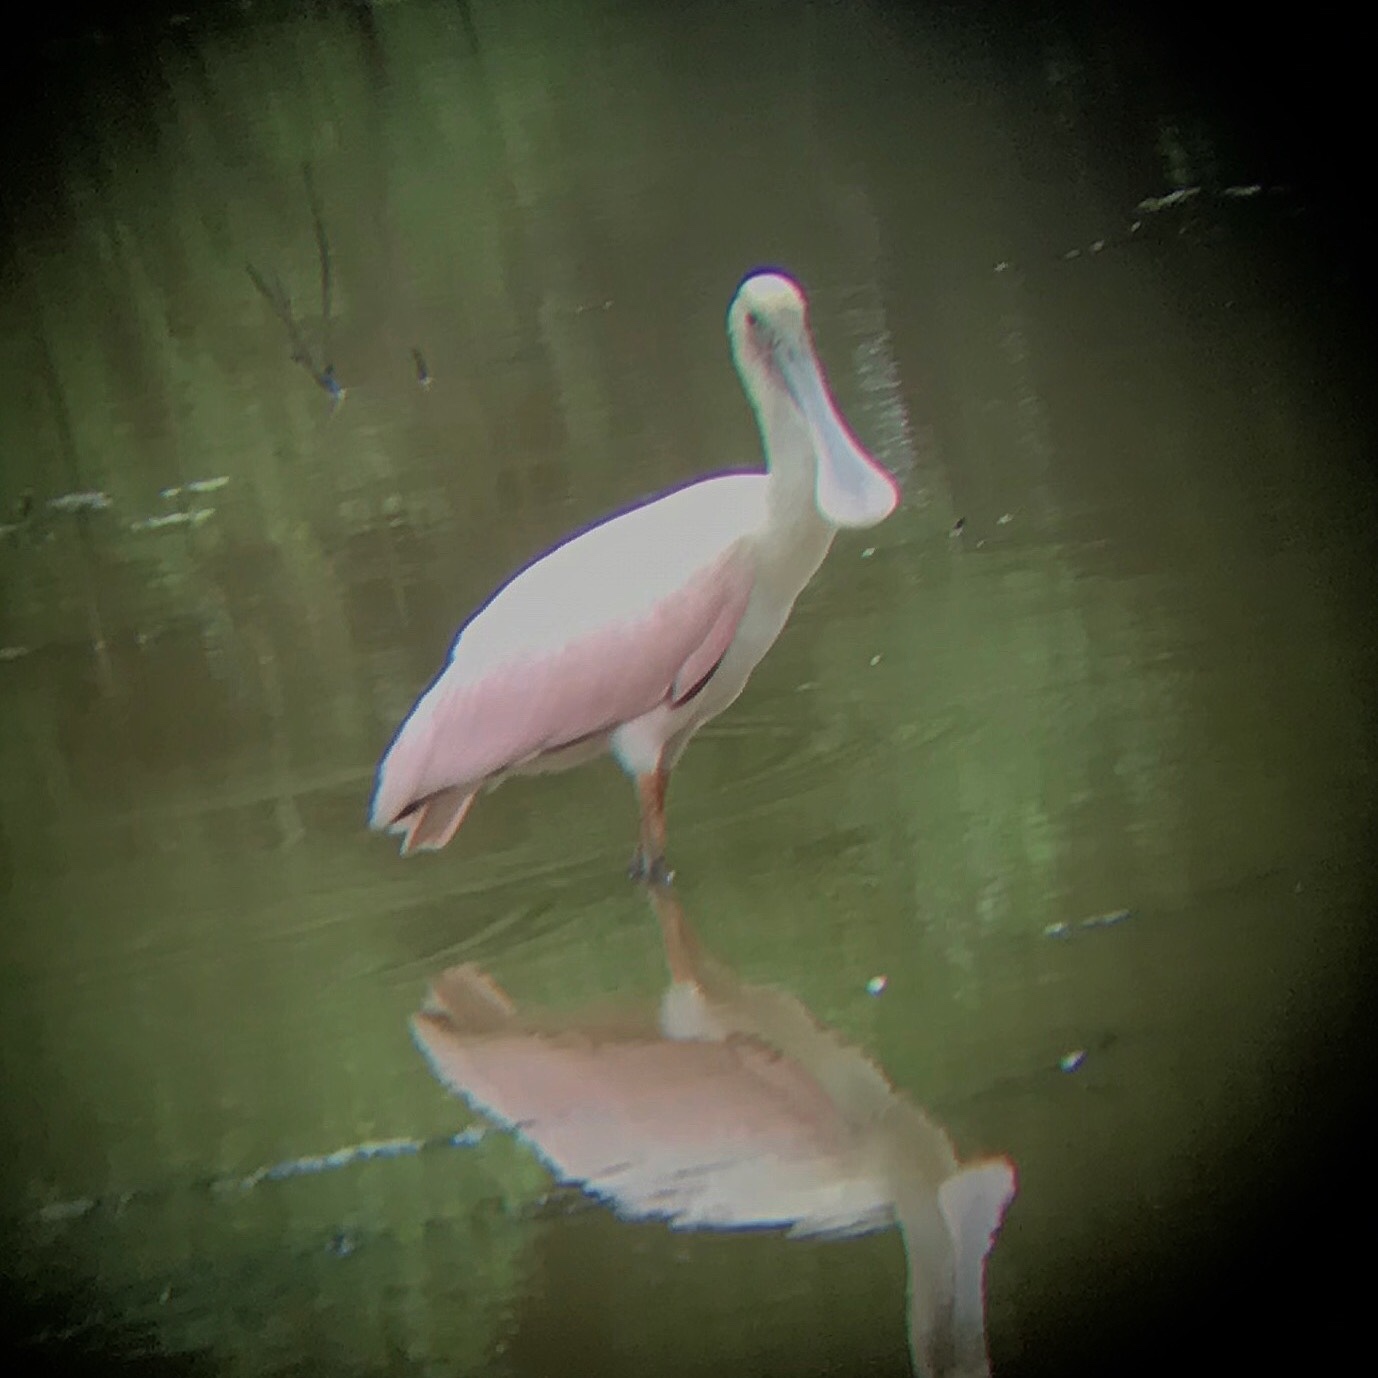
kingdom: Animalia
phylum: Chordata
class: Aves
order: Pelecaniformes
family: Threskiornithidae
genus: Platalea
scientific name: Platalea ajaja
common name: Roseate spoonbill
